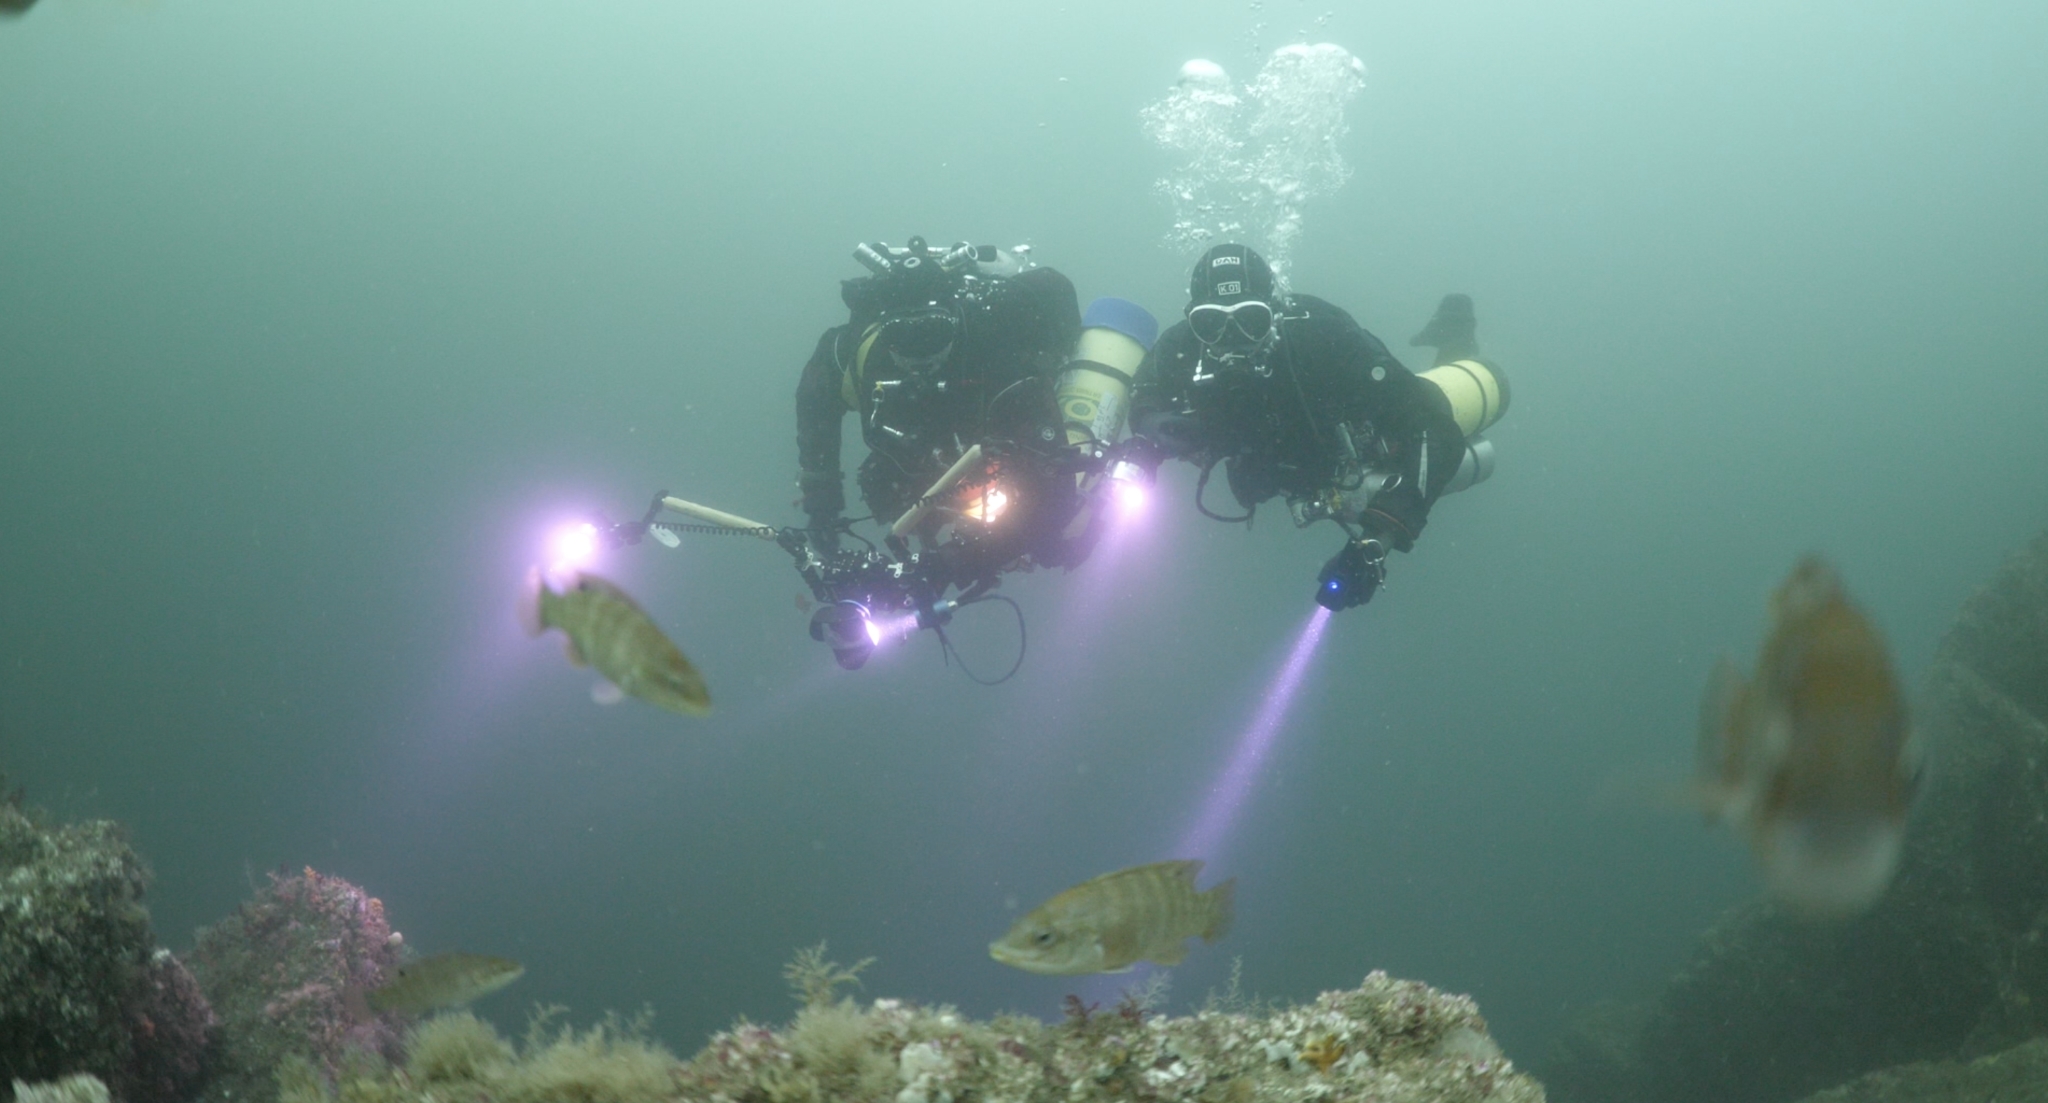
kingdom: Animalia
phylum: Chordata
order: Perciformes
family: Labridae
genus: Tautogolabrus
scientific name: Tautogolabrus adspersus
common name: Cunner
